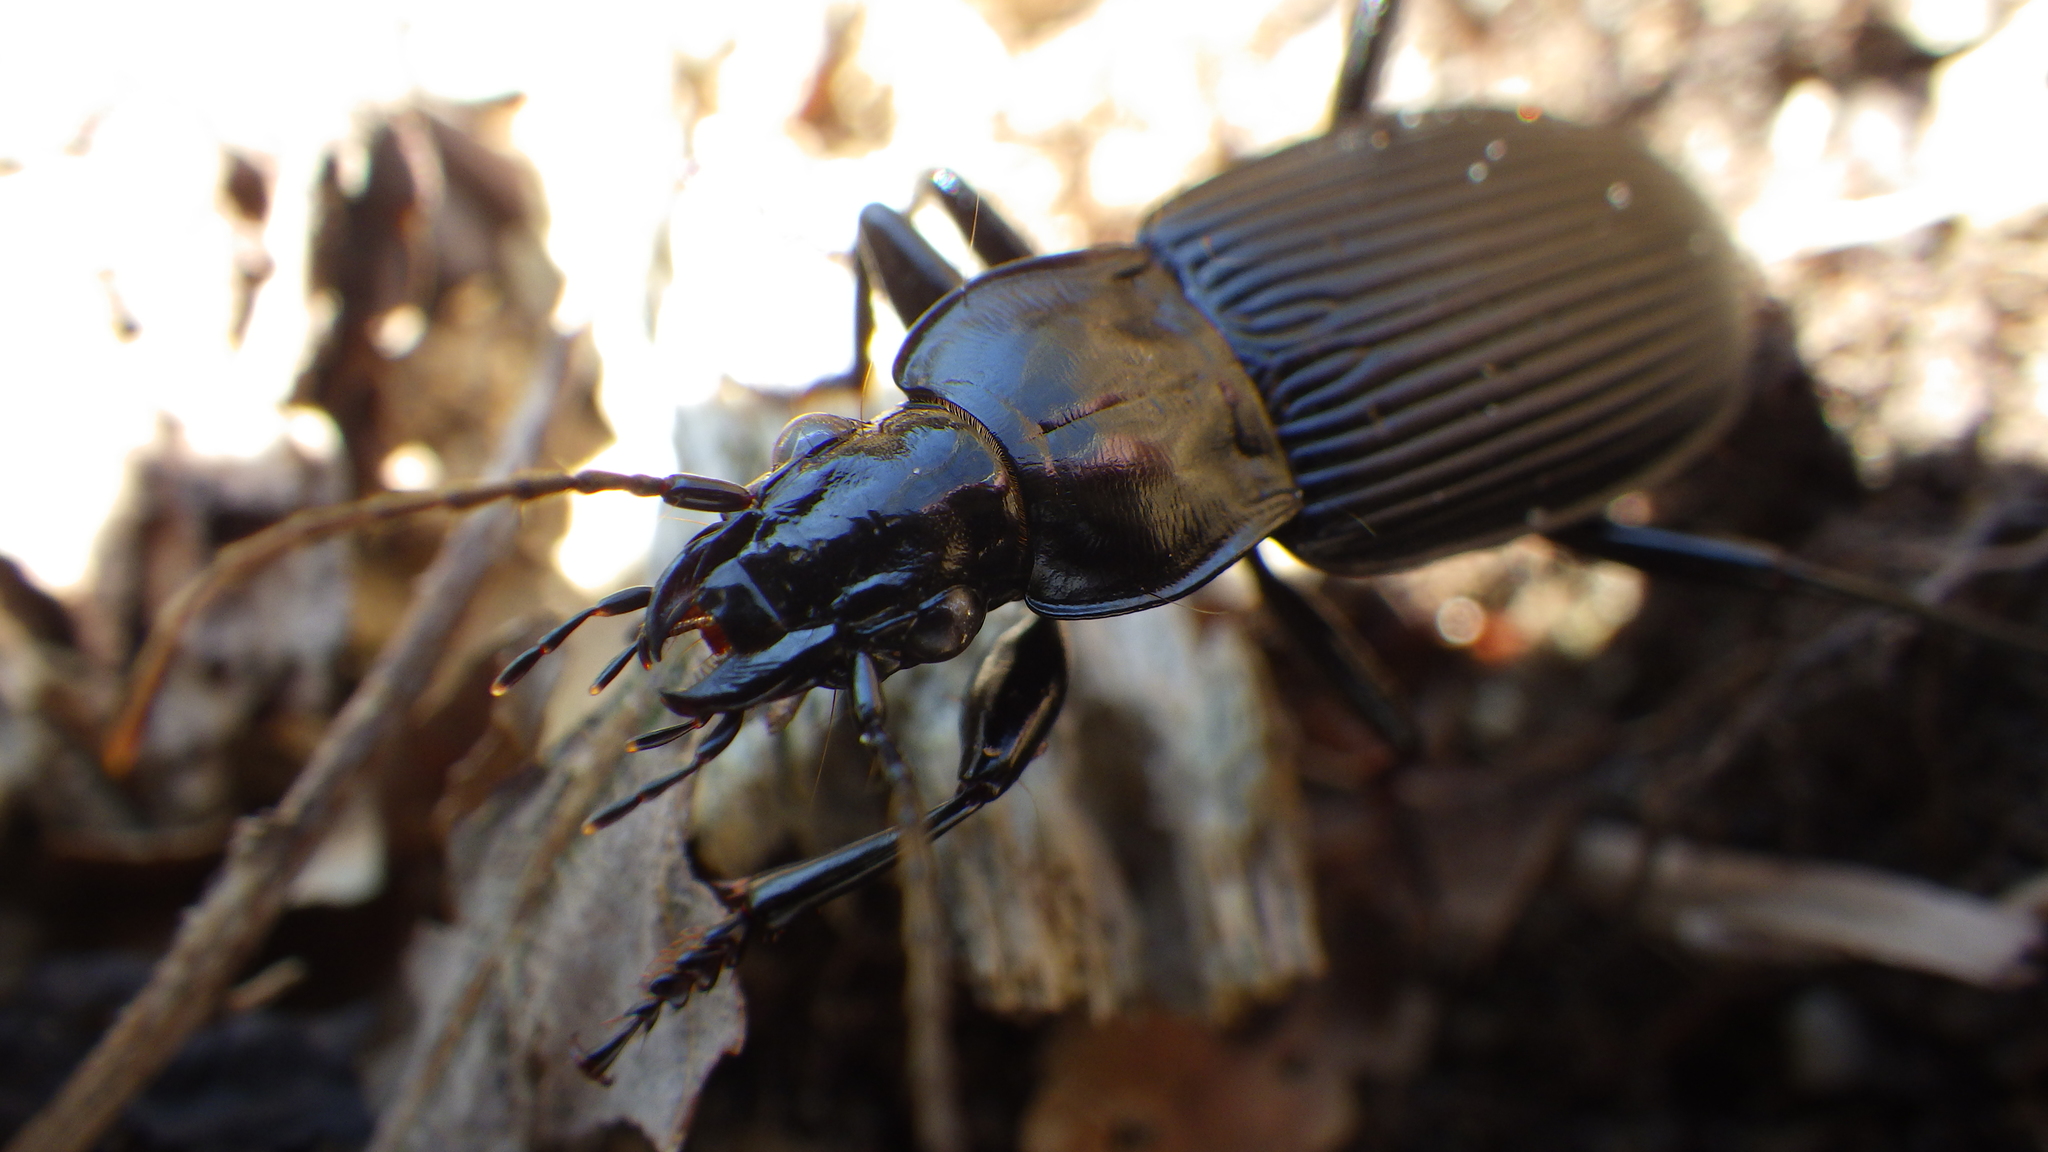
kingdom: Animalia
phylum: Arthropoda
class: Insecta
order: Coleoptera
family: Carabidae
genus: Pterostichus
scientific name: Pterostichus niger
